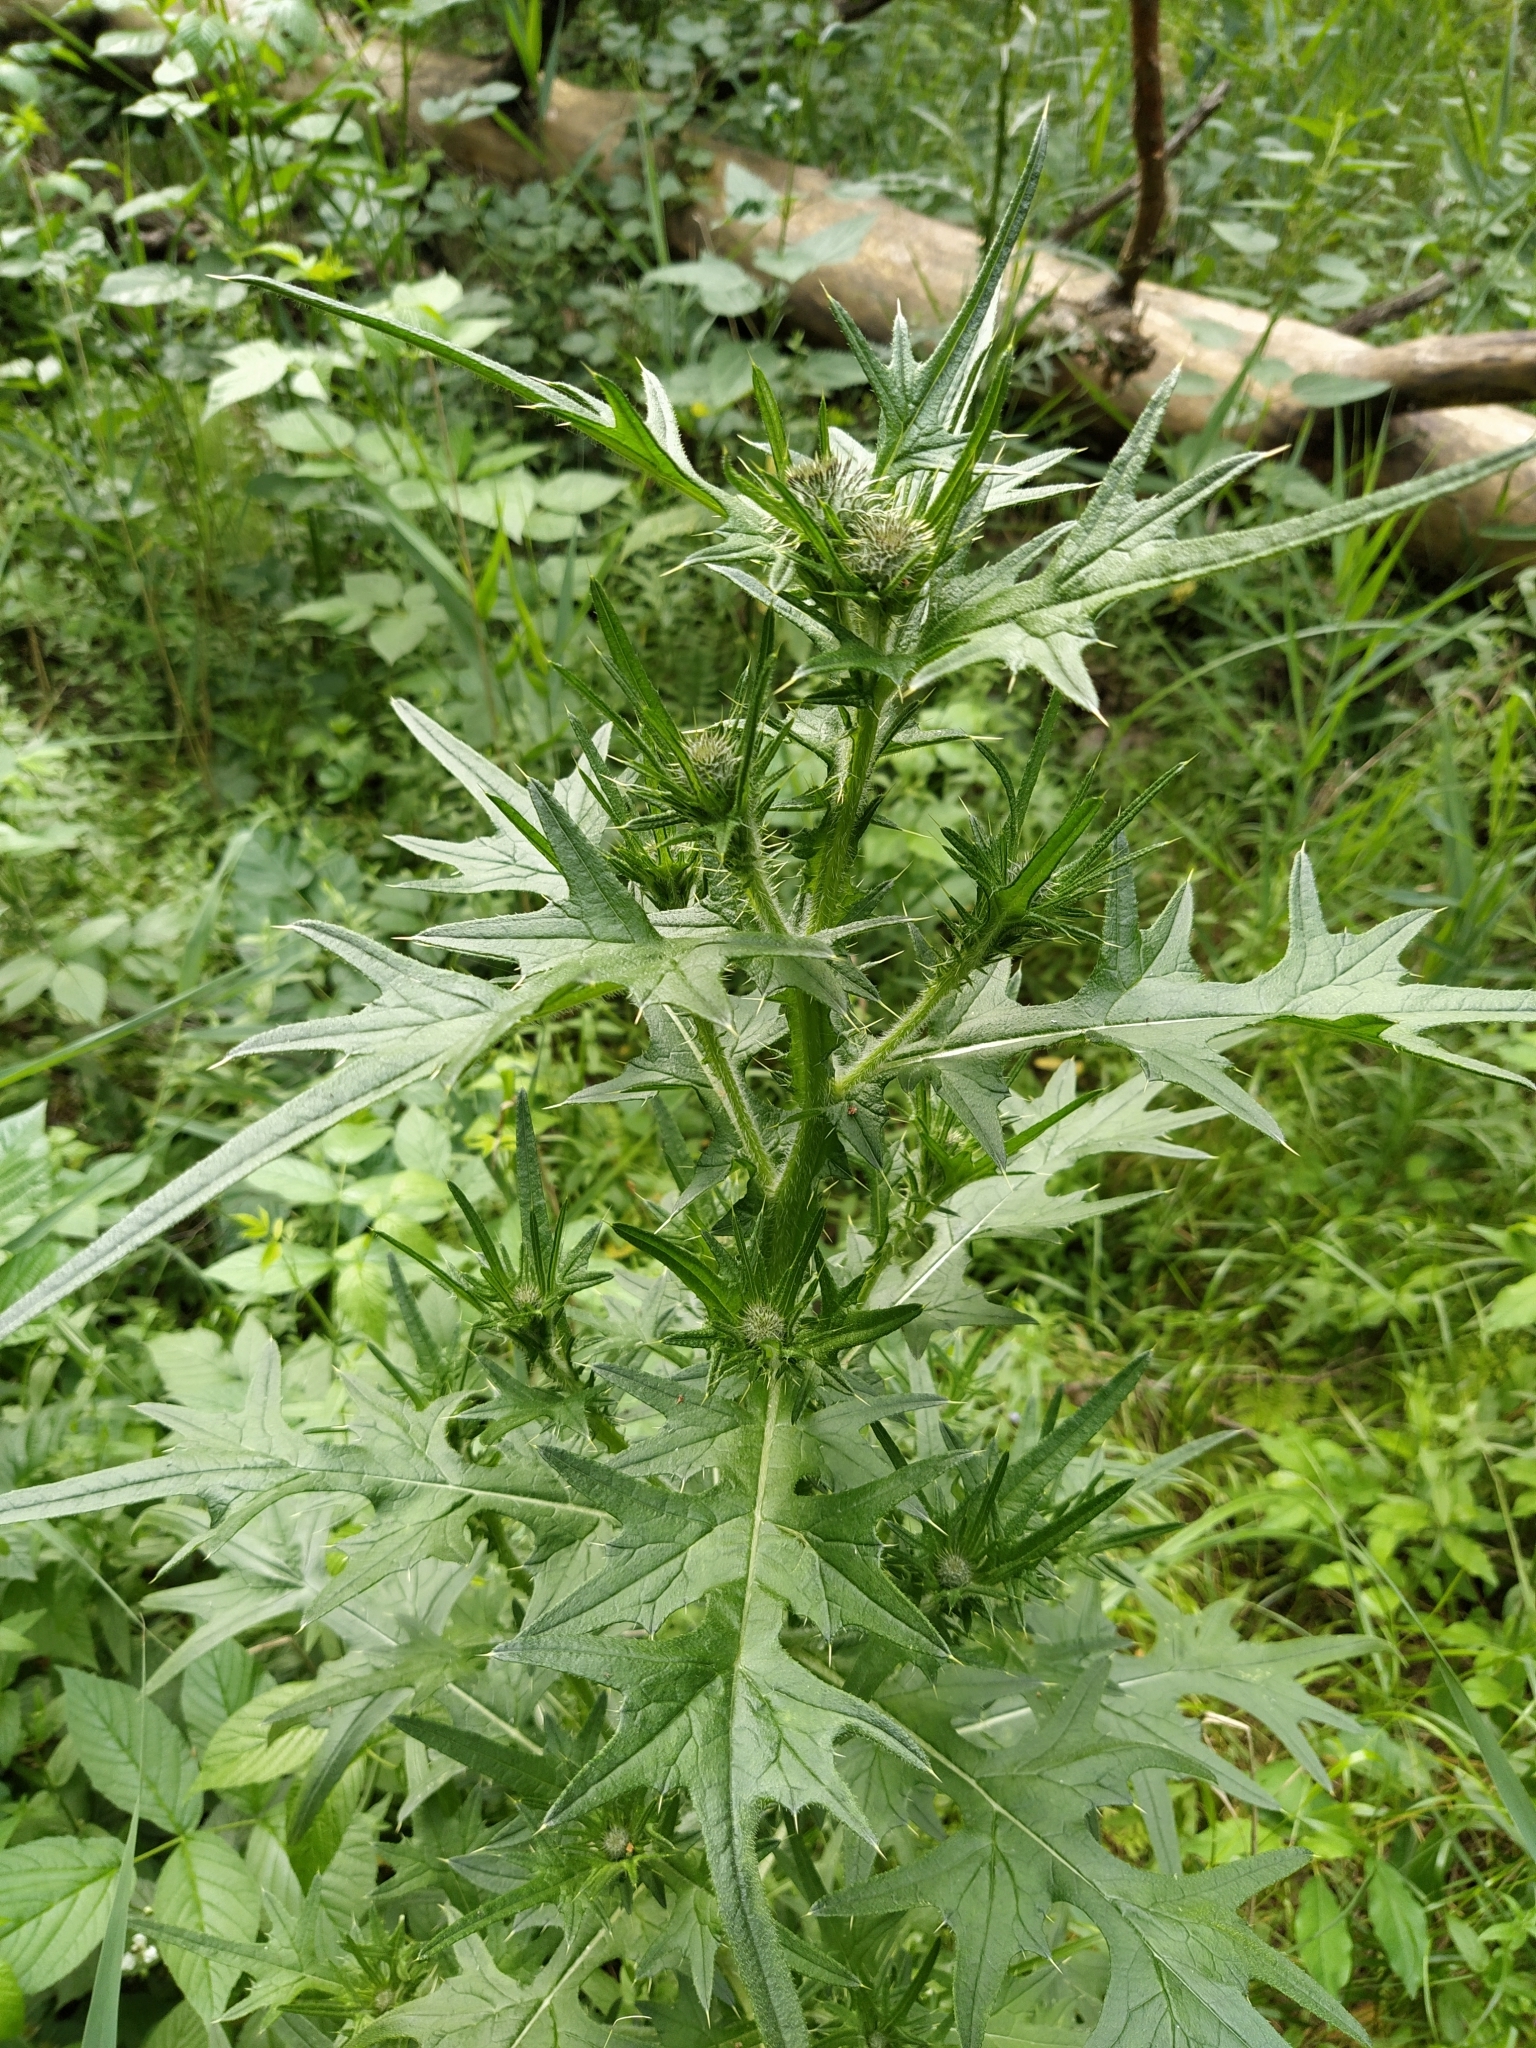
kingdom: Plantae
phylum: Tracheophyta
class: Magnoliopsida
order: Asterales
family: Asteraceae
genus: Cirsium
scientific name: Cirsium vulgare
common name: Bull thistle
